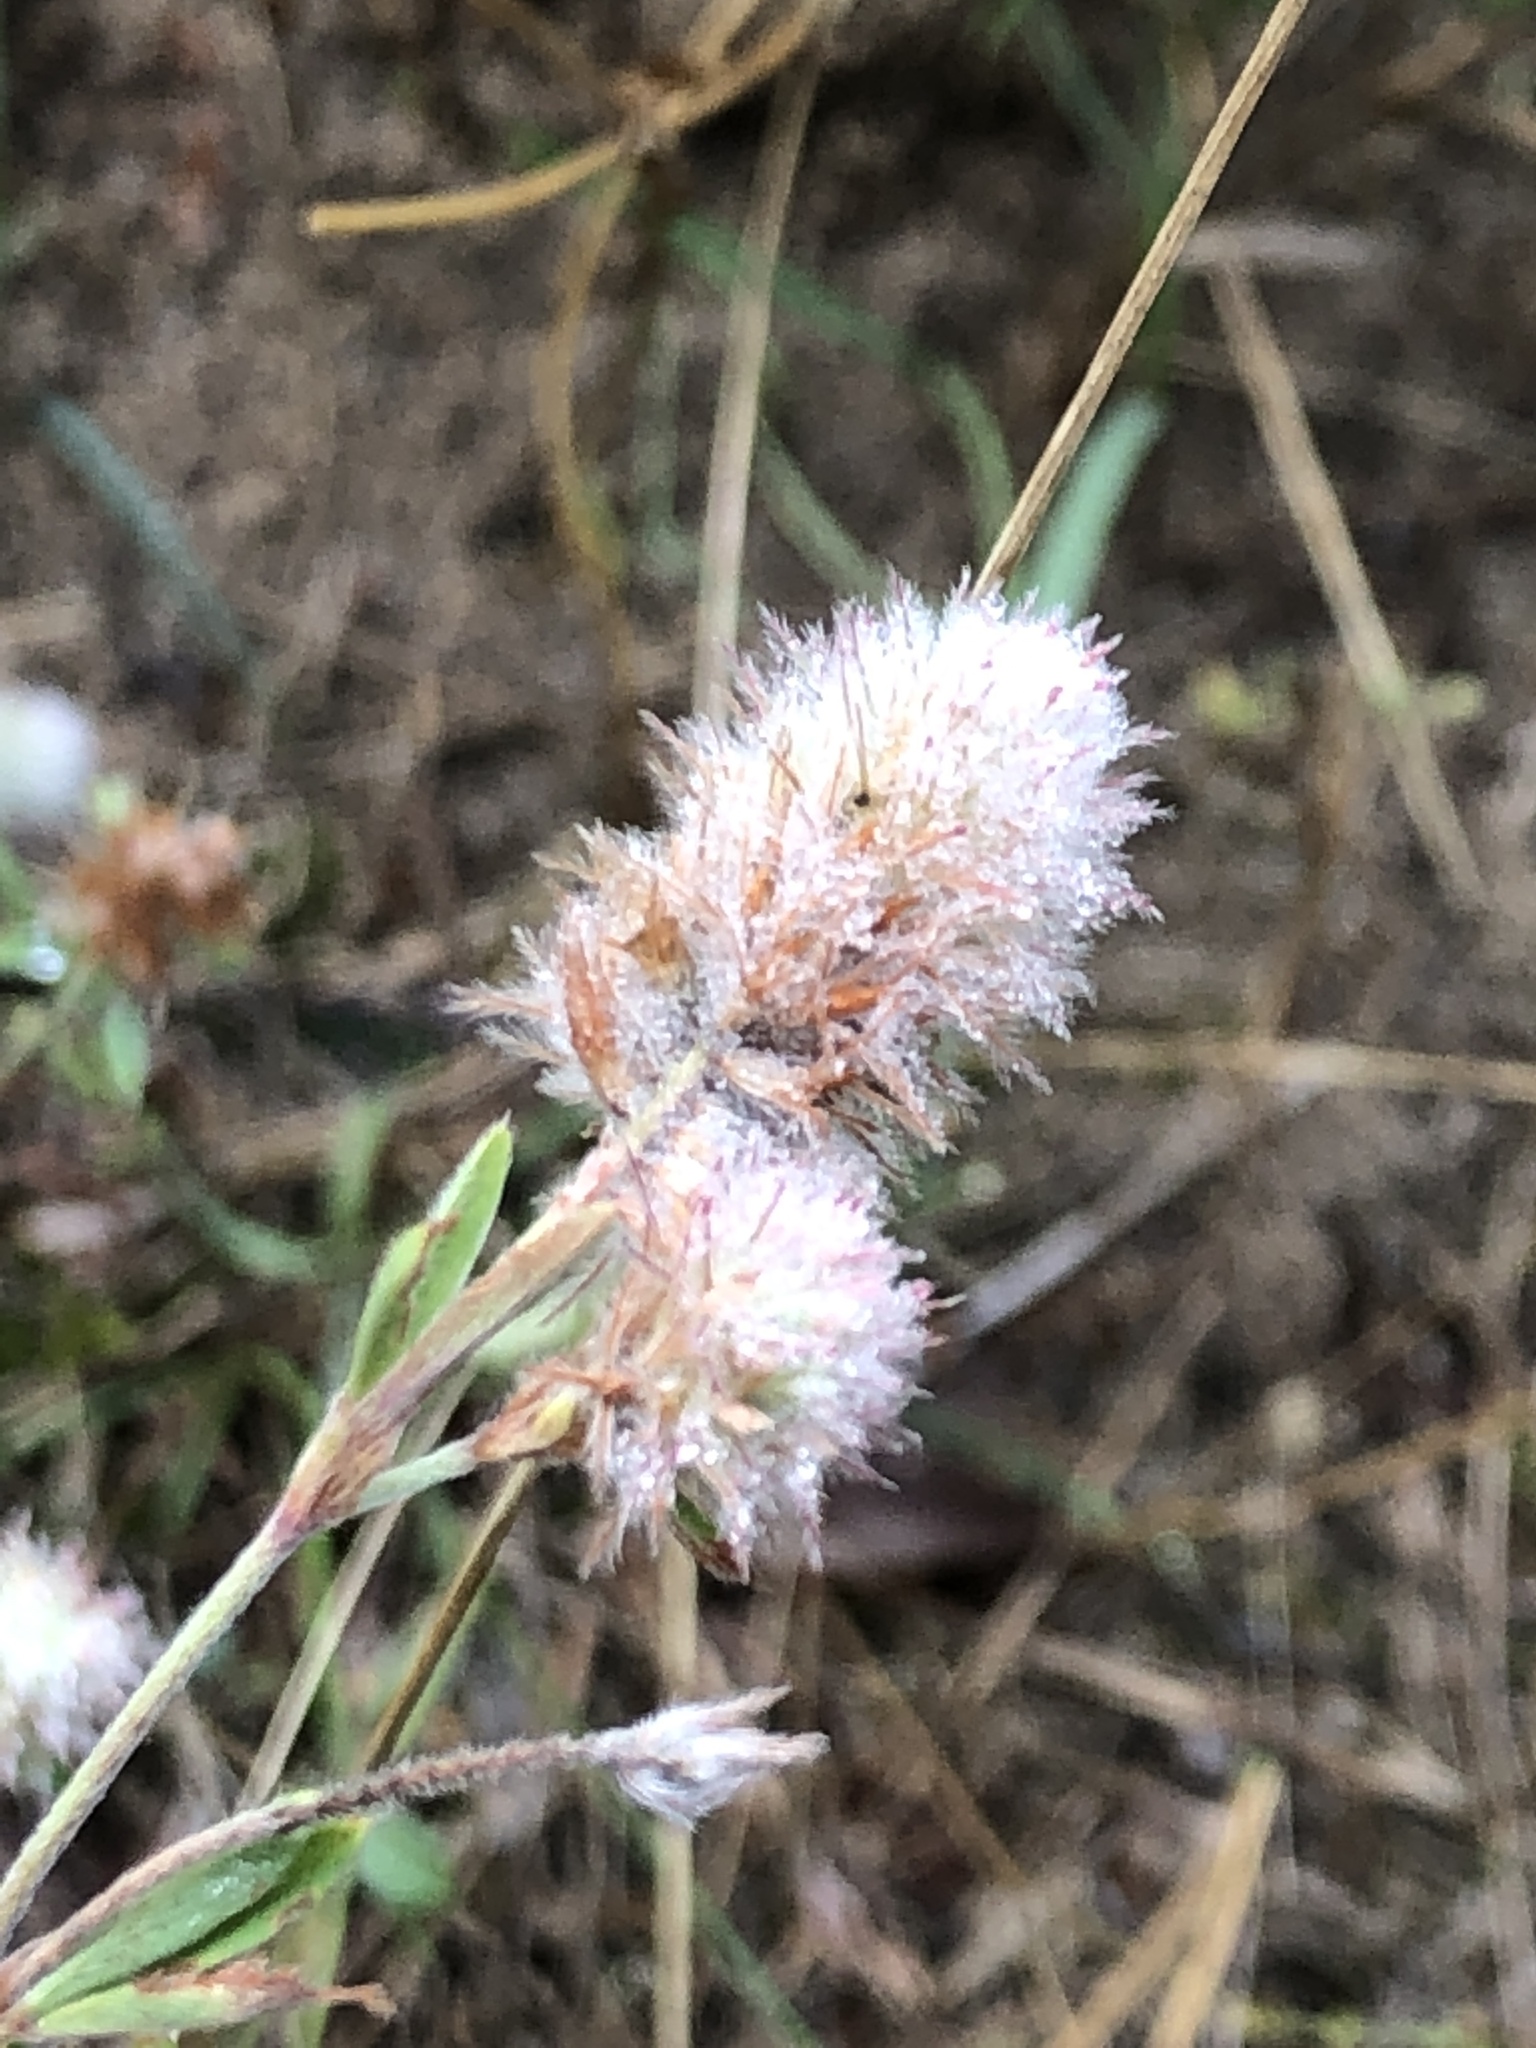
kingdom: Plantae
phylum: Tracheophyta
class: Magnoliopsida
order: Fabales
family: Fabaceae
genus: Trifolium
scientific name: Trifolium arvense
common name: Hare's-foot clover
